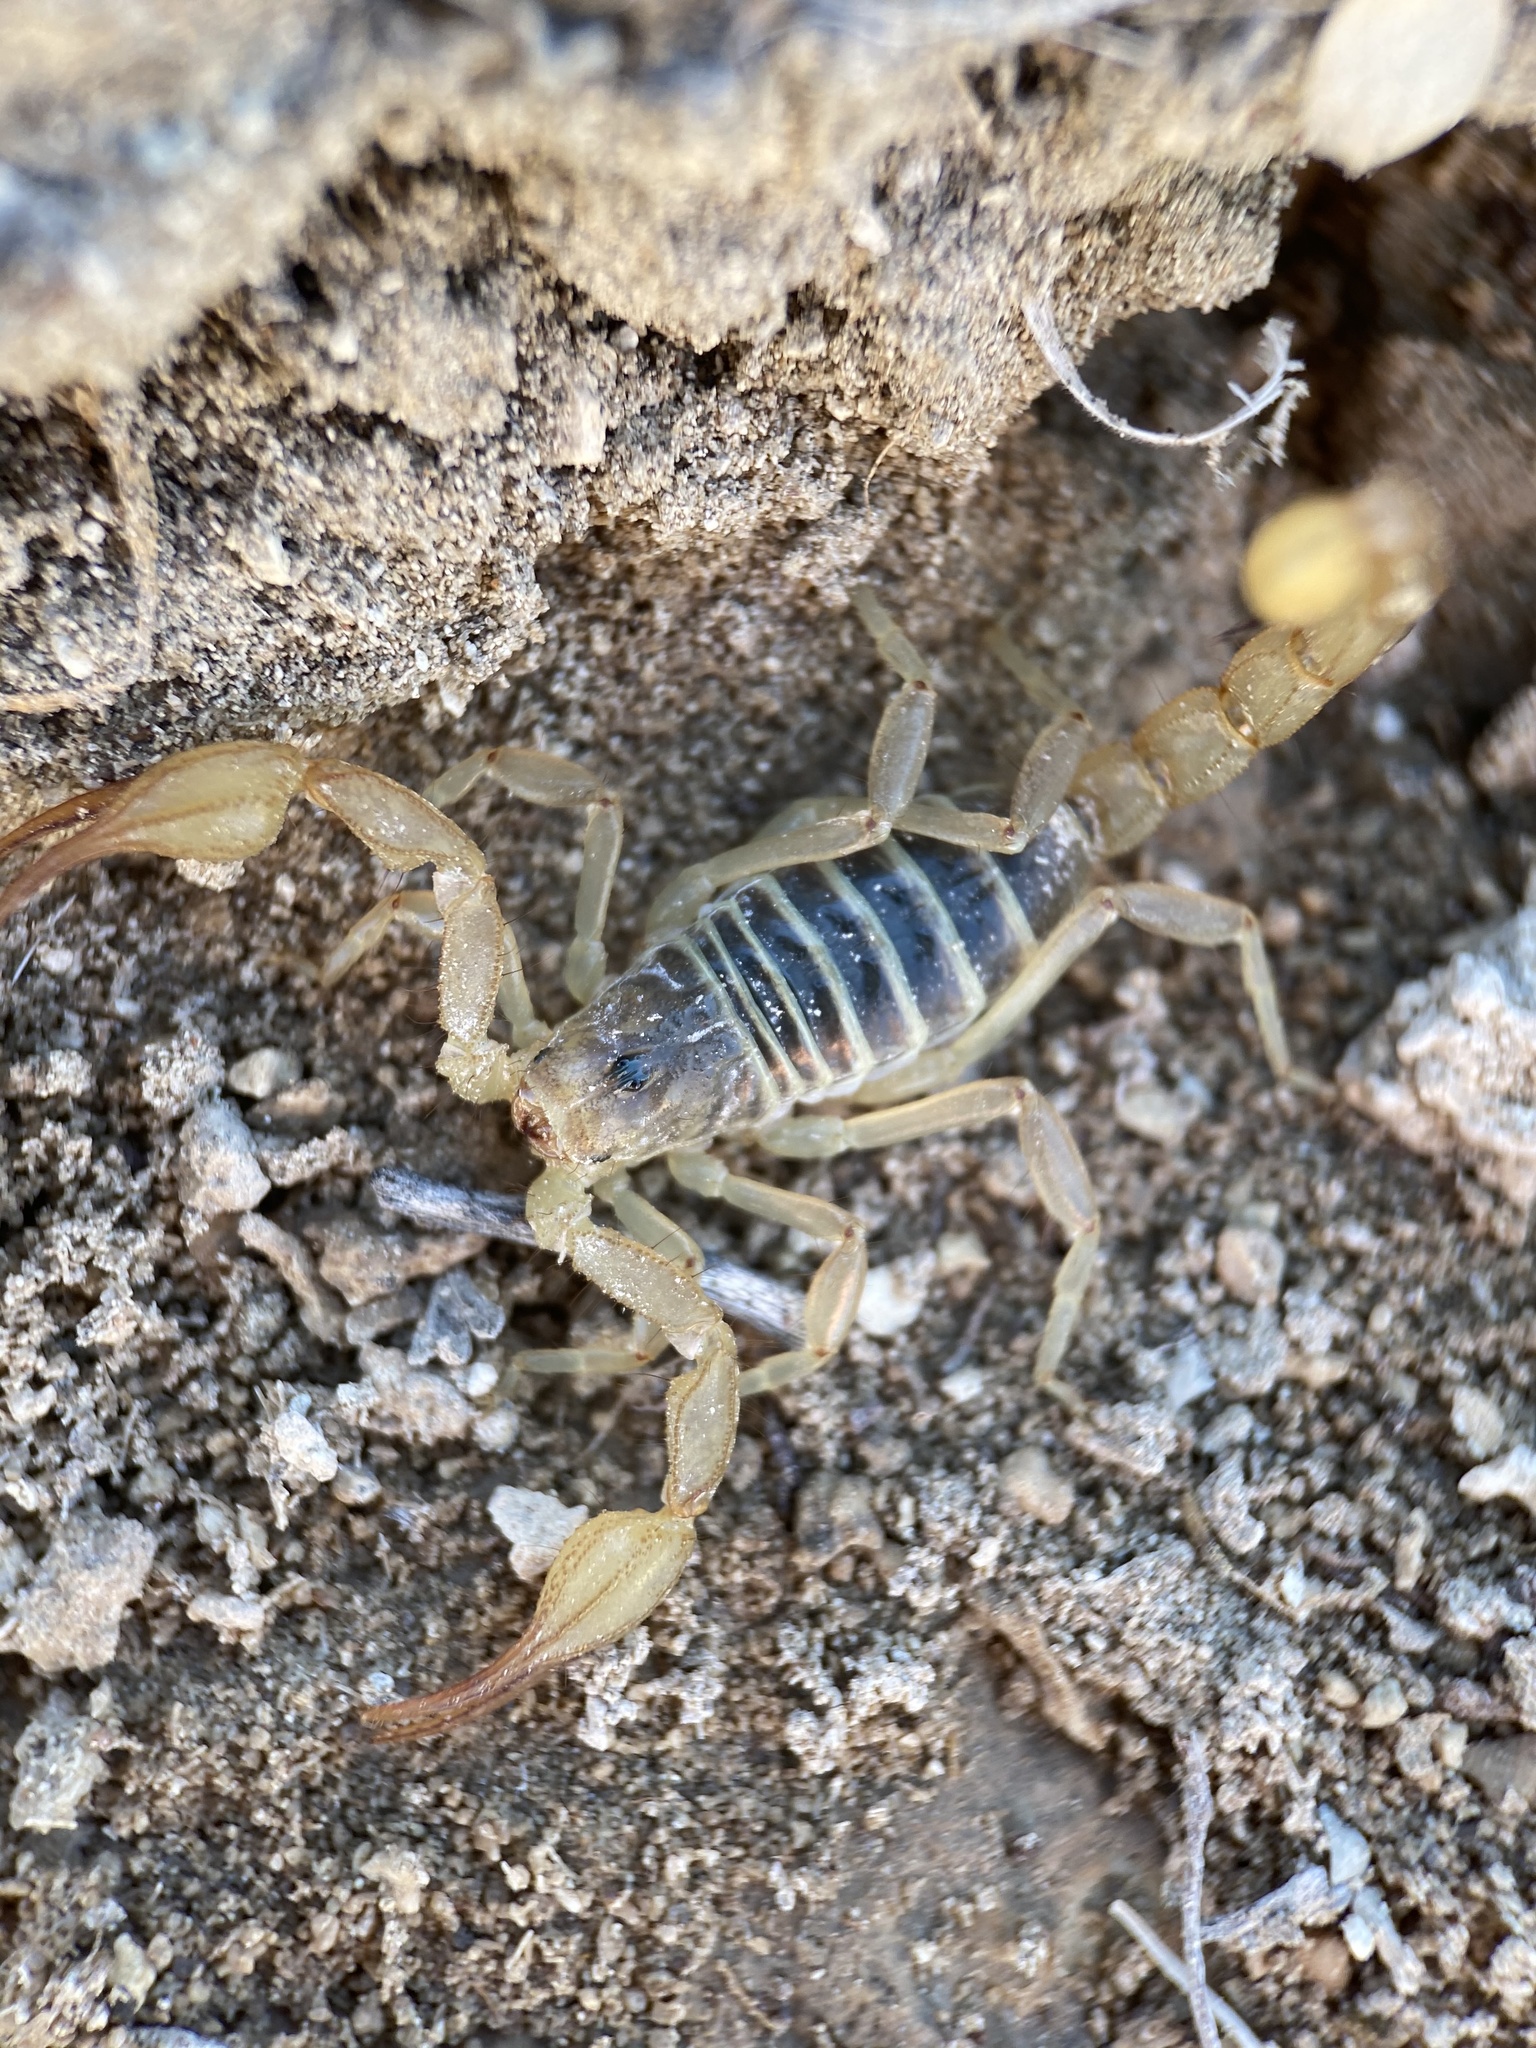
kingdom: Animalia
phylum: Arthropoda
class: Arachnida
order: Scorpiones
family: Vaejovidae
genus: Paruroctonus
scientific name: Paruroctonus boreus
